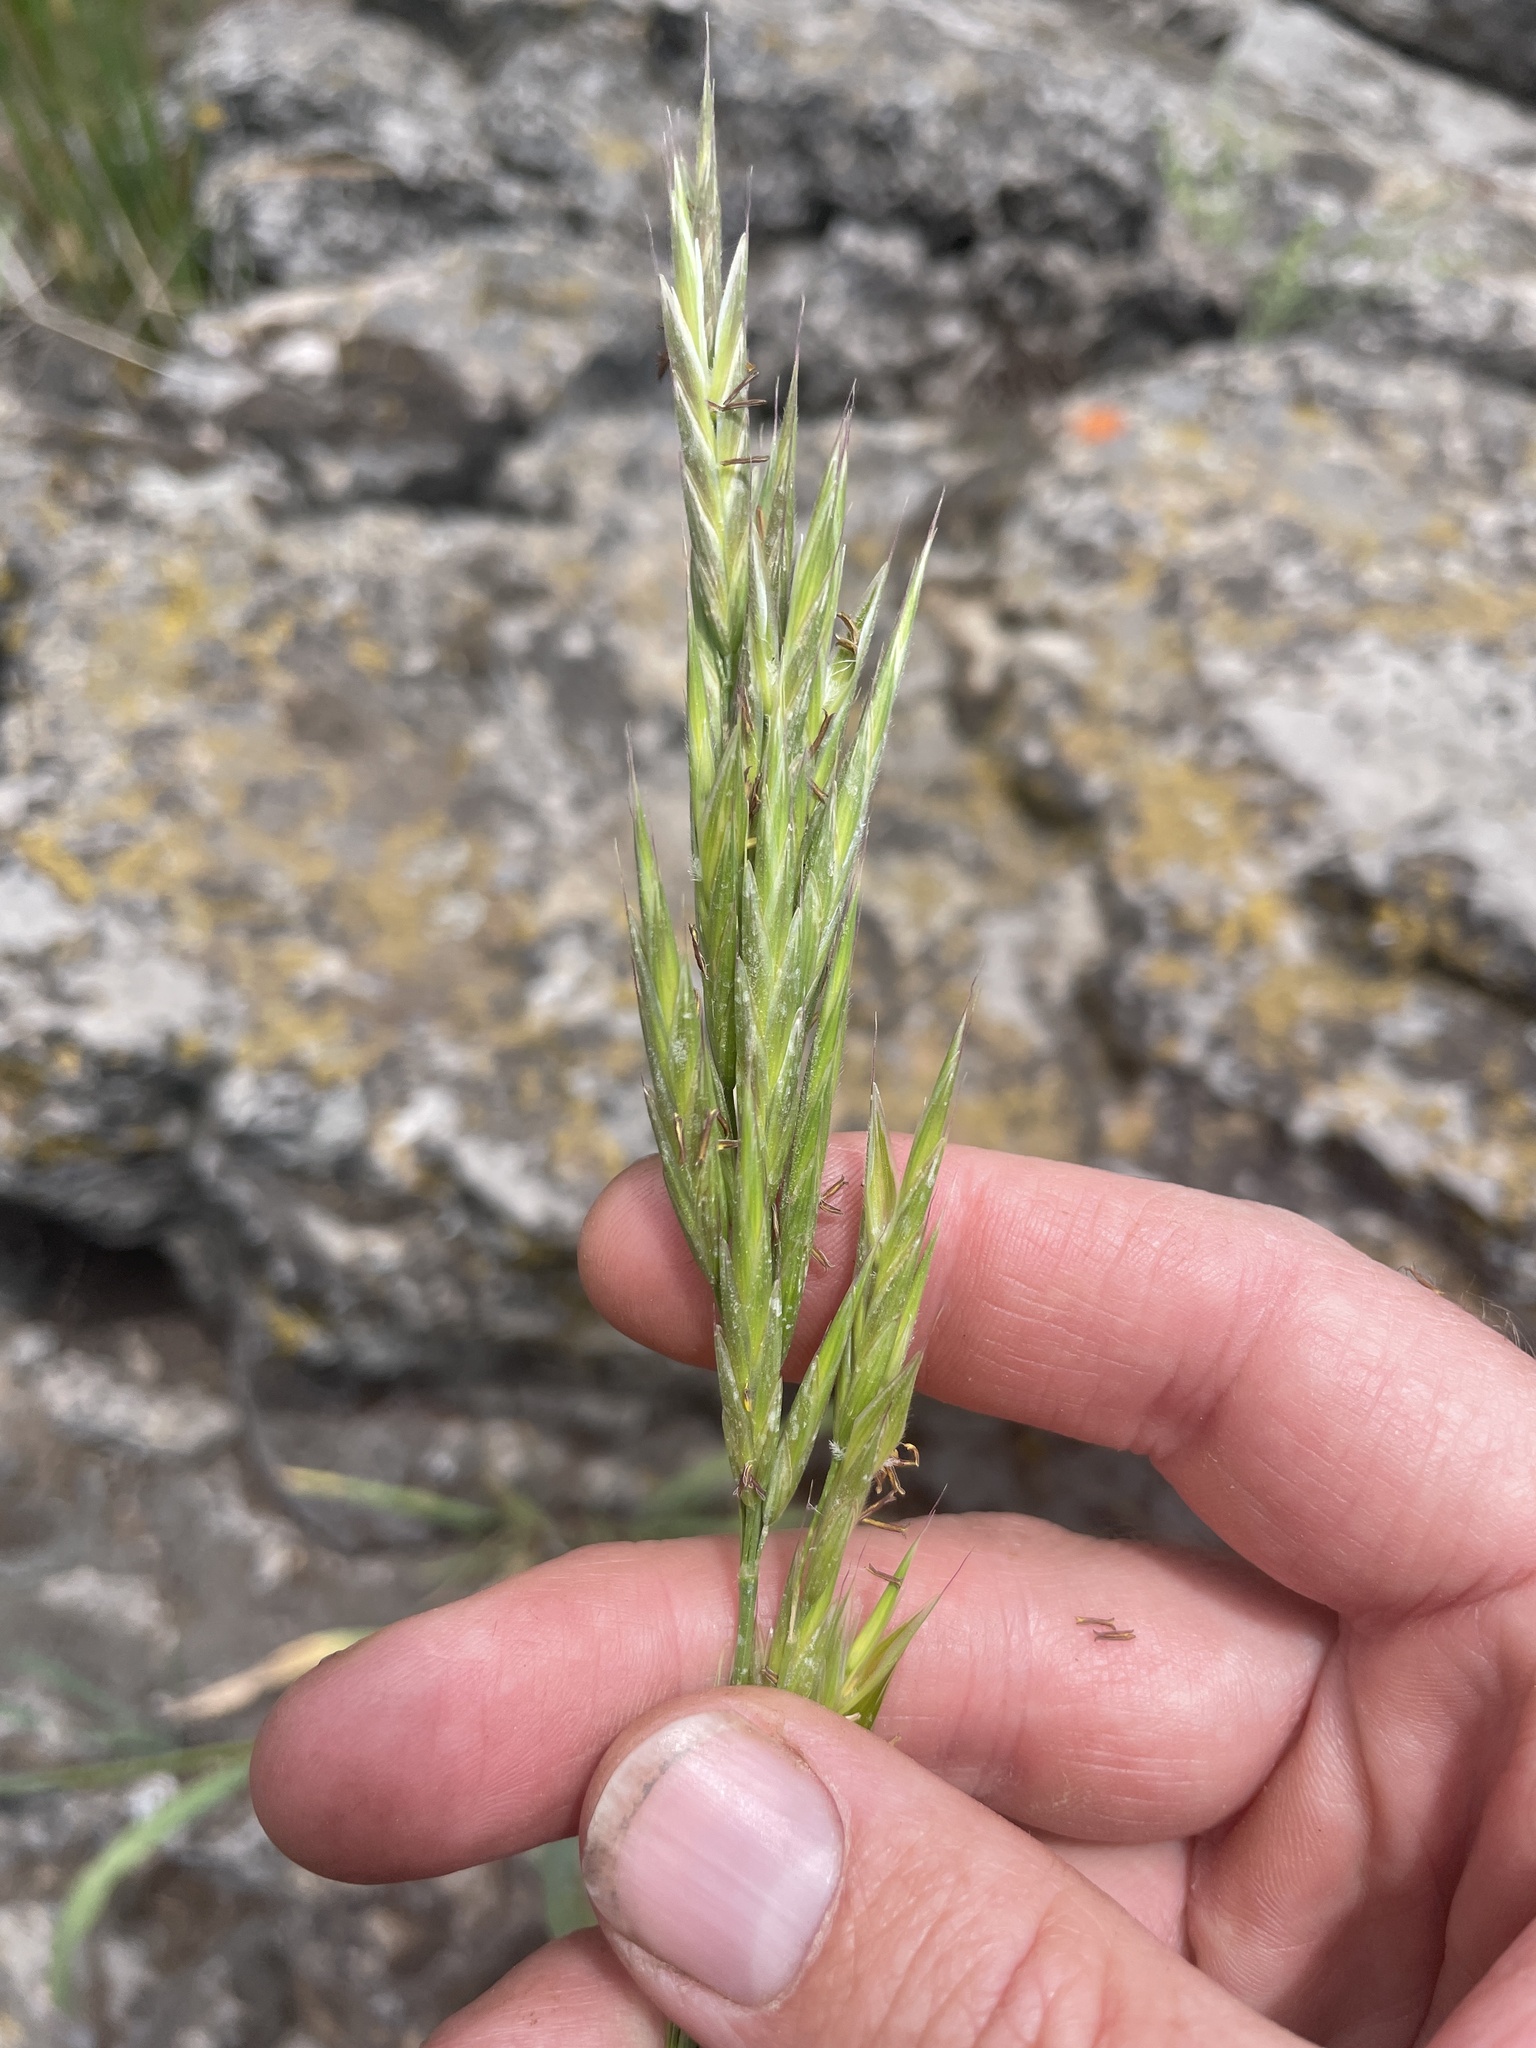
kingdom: Plantae
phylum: Tracheophyta
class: Liliopsida
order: Poales
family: Poaceae
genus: Bromus
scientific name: Bromus marginatus
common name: Western brome
